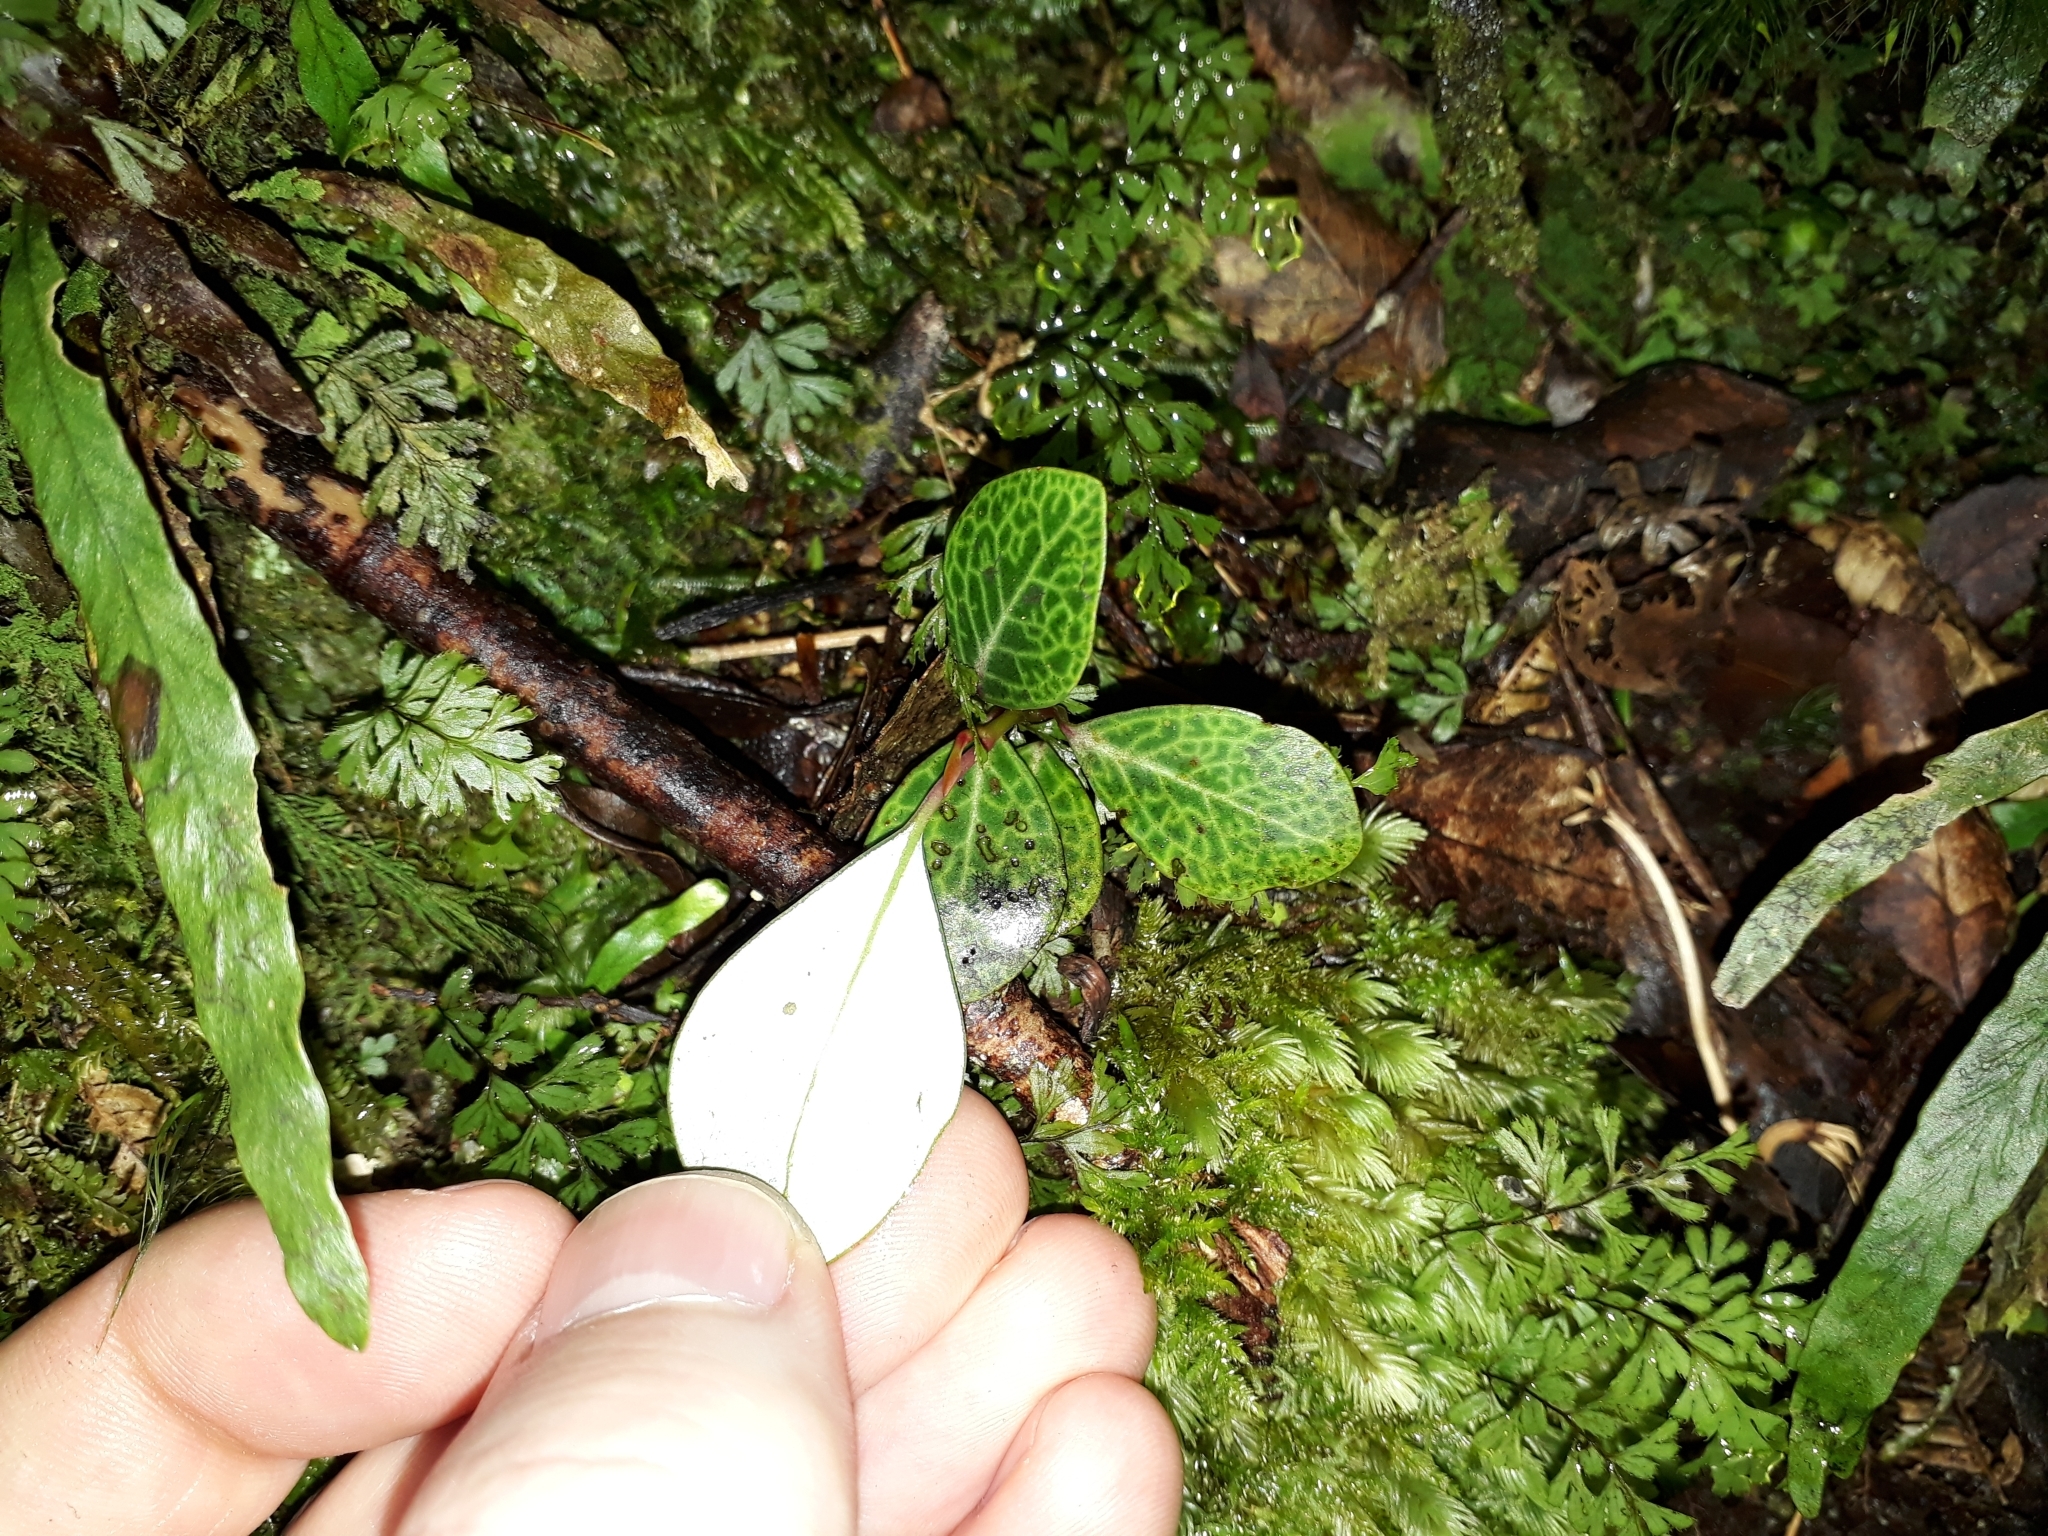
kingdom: Plantae
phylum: Tracheophyta
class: Magnoliopsida
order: Canellales
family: Winteraceae
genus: Pseudowintera
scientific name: Pseudowintera axillaris
